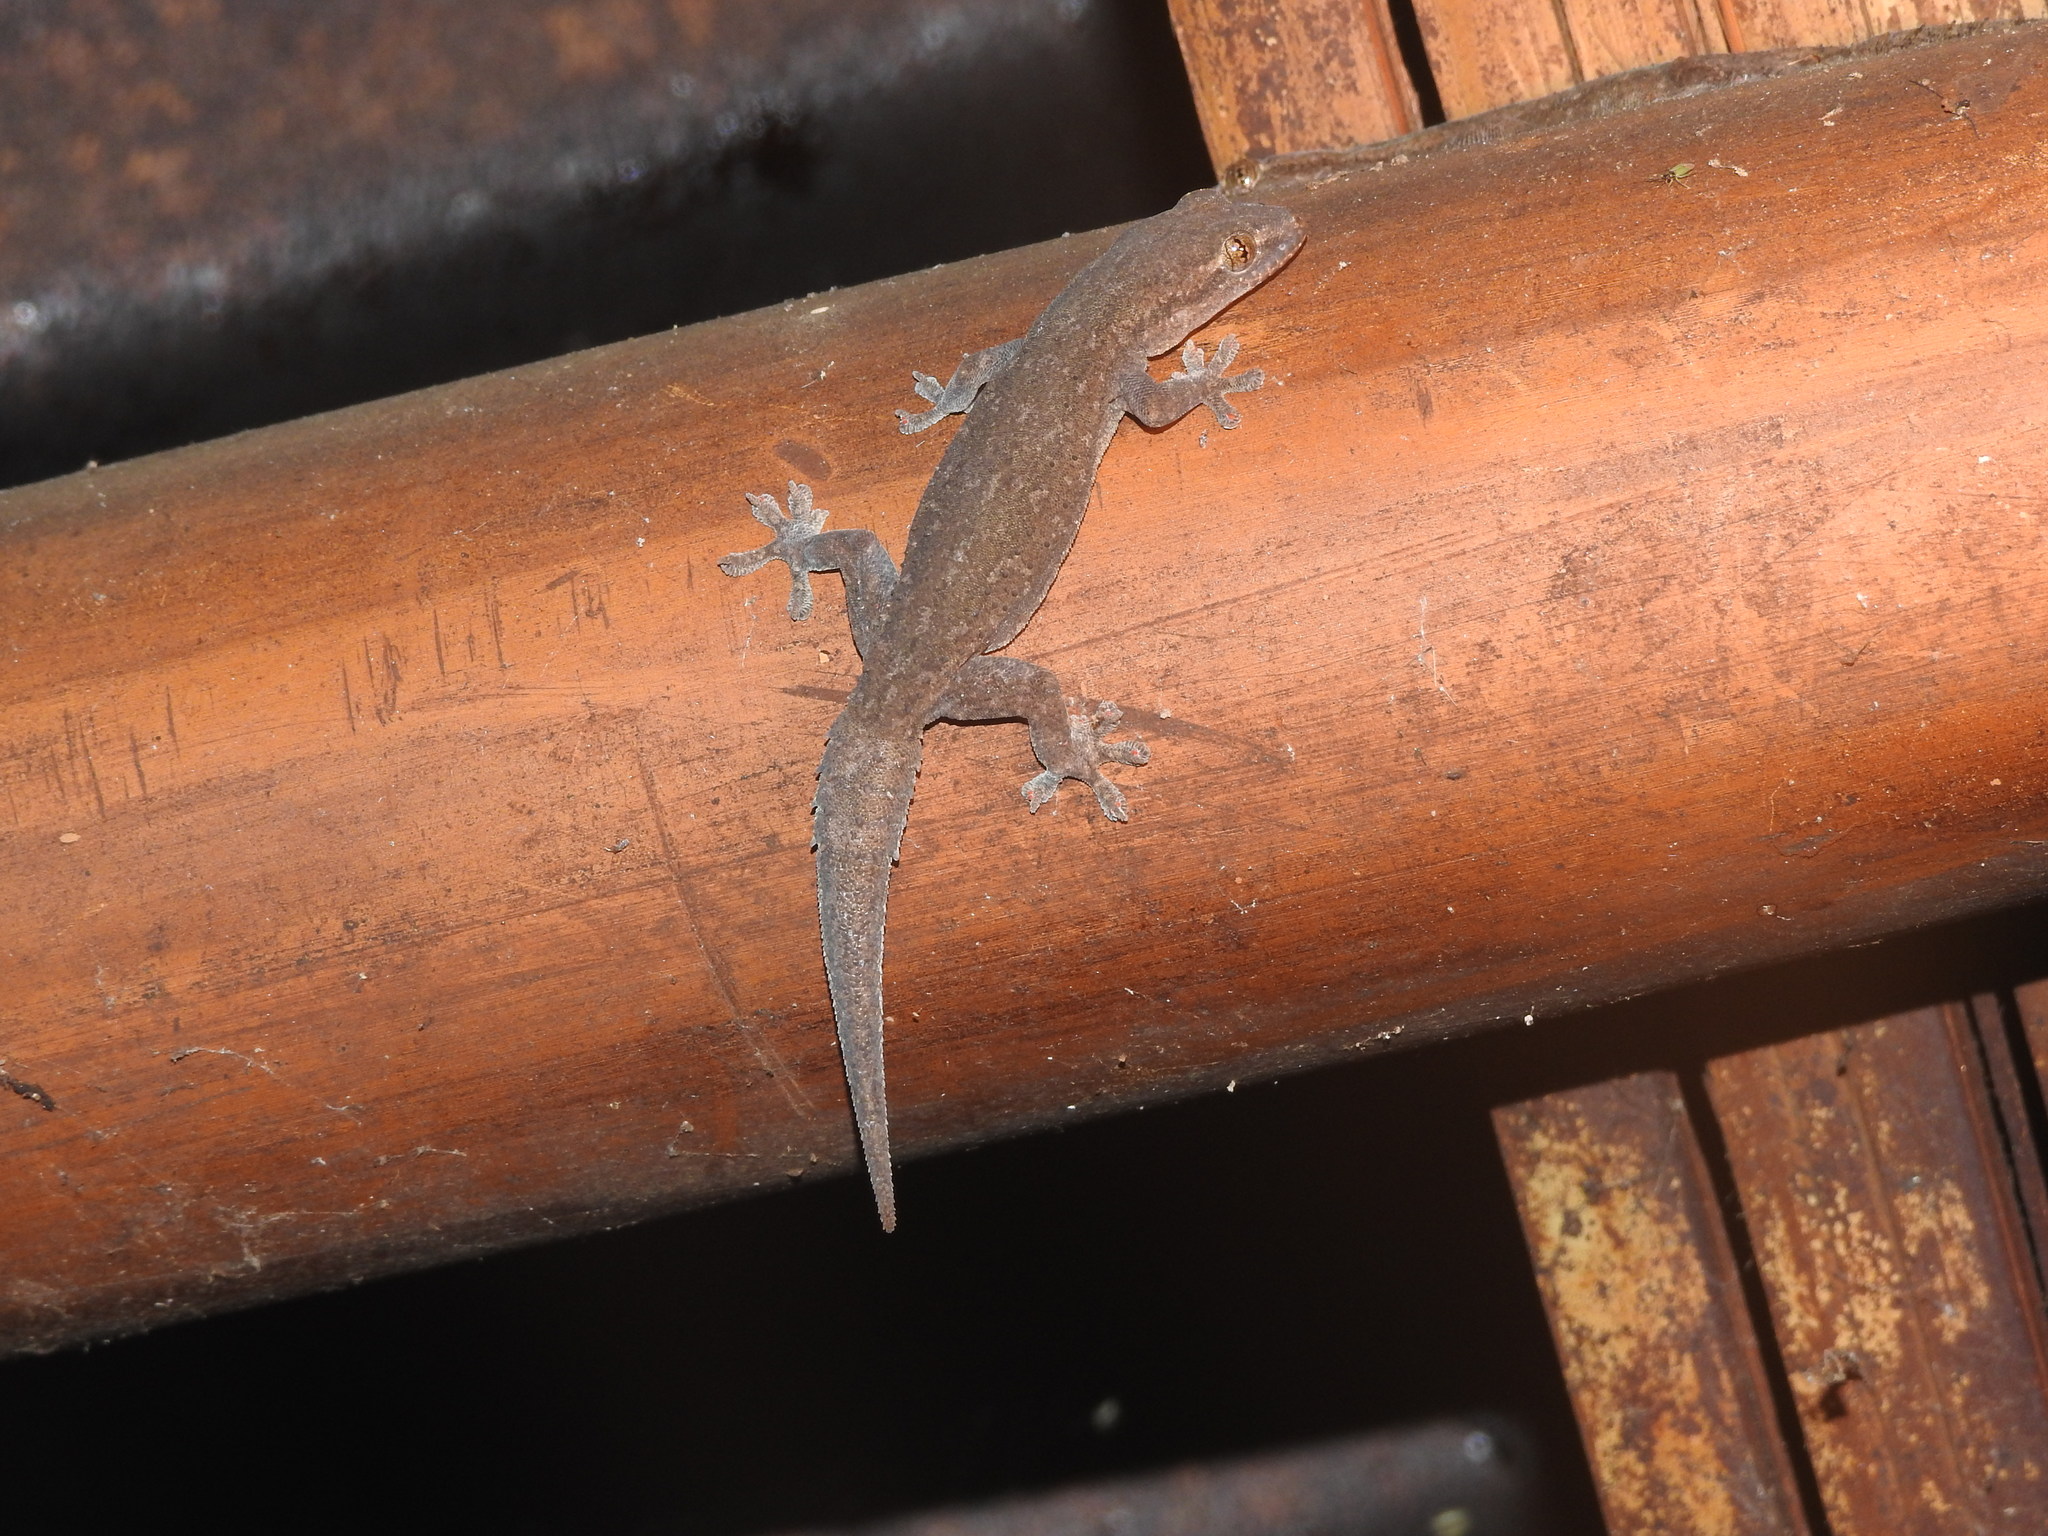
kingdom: Animalia
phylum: Chordata
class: Squamata
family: Gekkonidae
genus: Hemidactylus
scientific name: Hemidactylus frenatus
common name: Common house gecko
